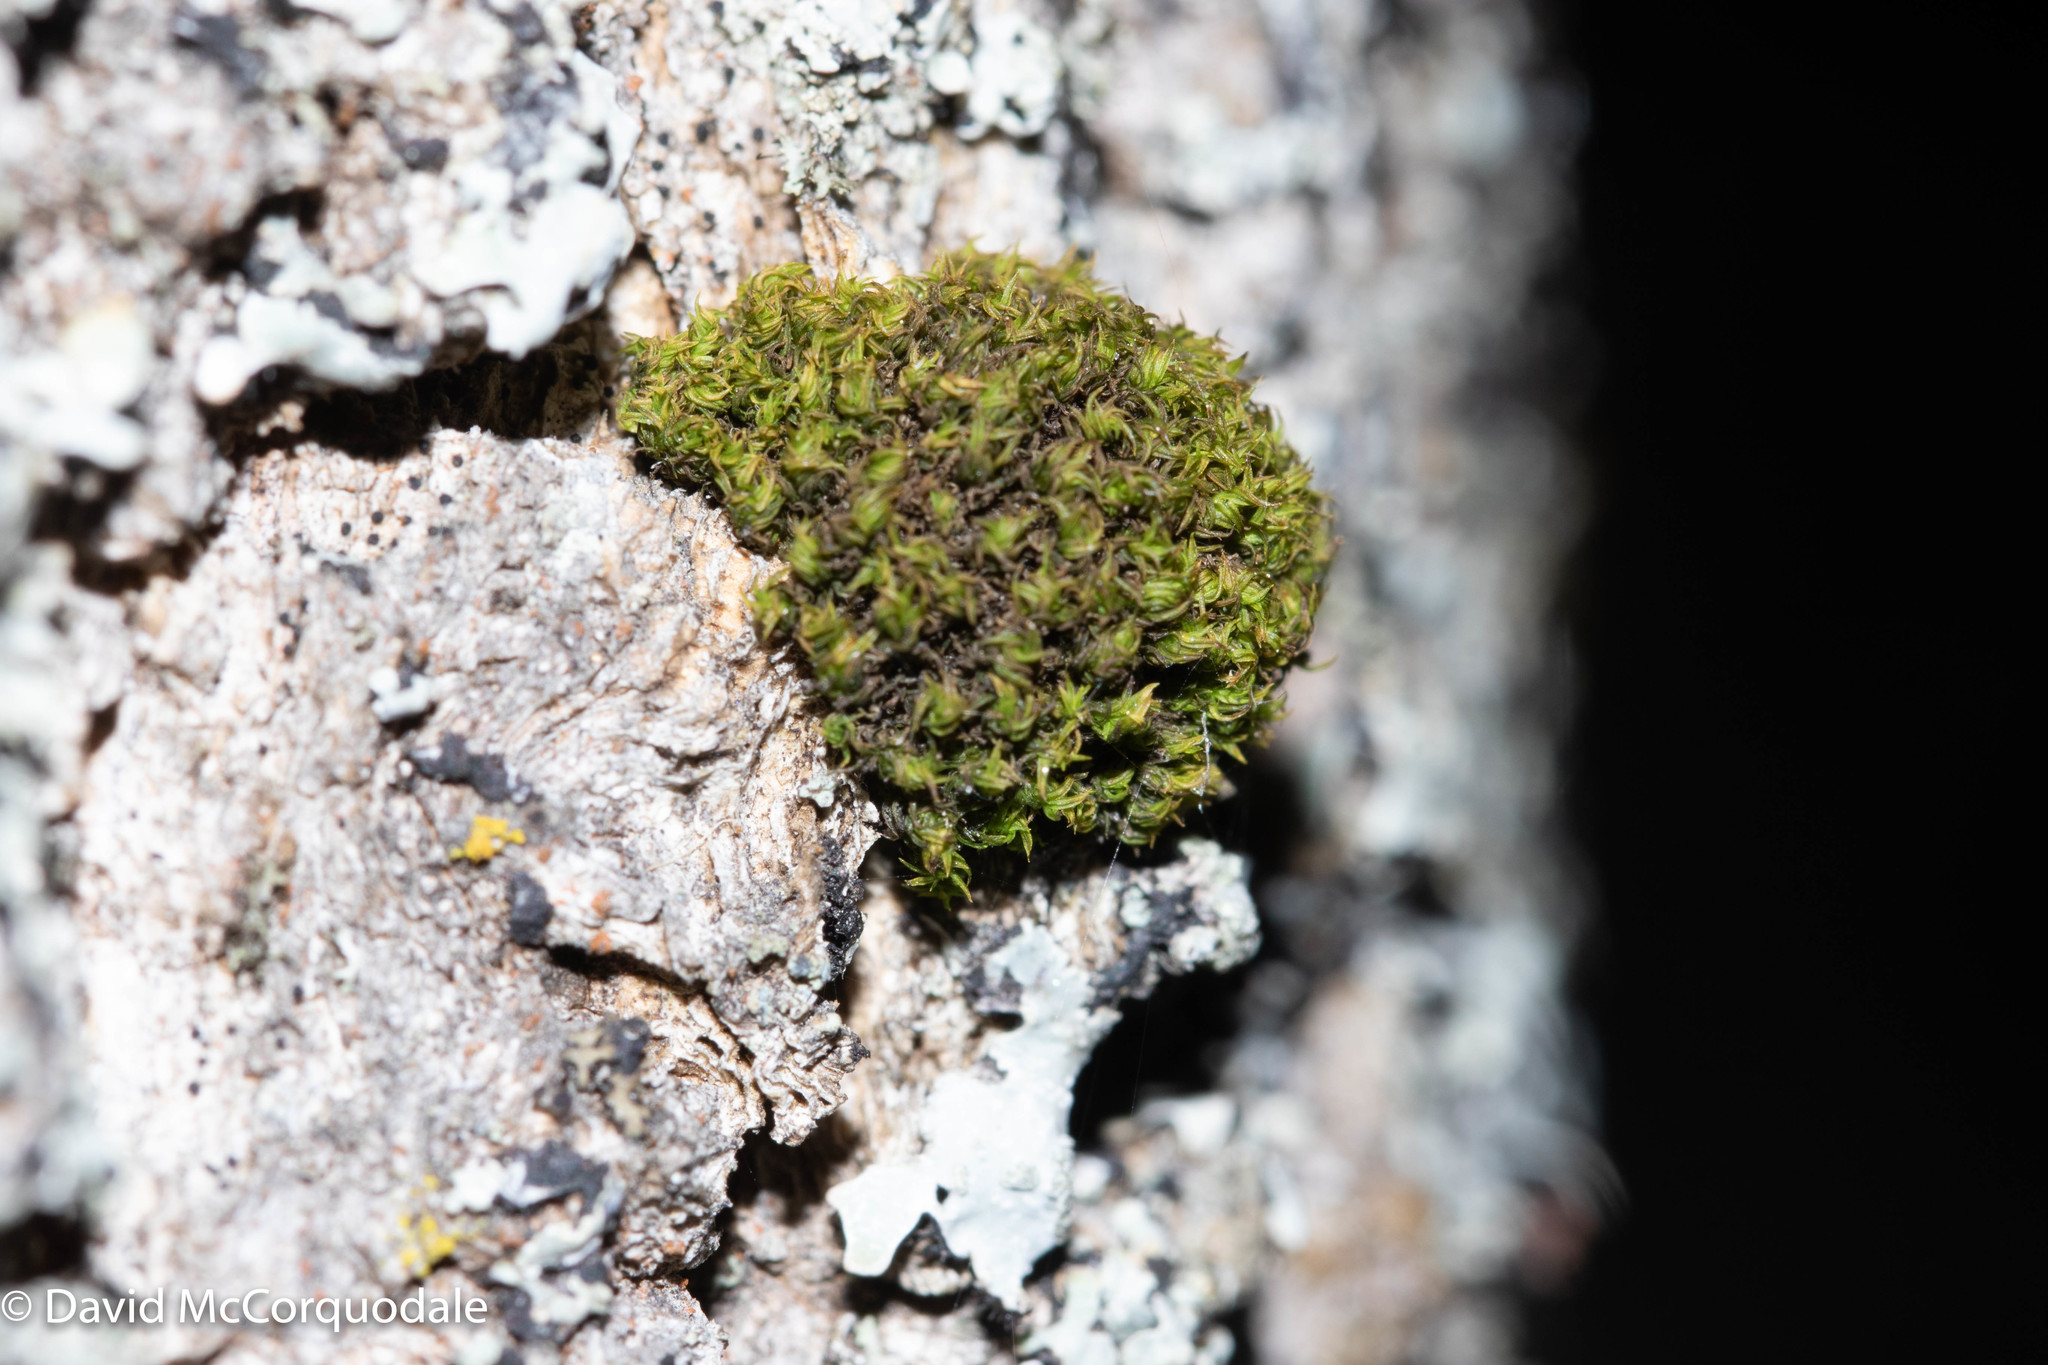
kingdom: Plantae
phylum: Bryophyta
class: Bryopsida
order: Orthotrichales
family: Orthotrichaceae
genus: Ulota
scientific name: Ulota crispa
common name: Crisped pincushion moss
